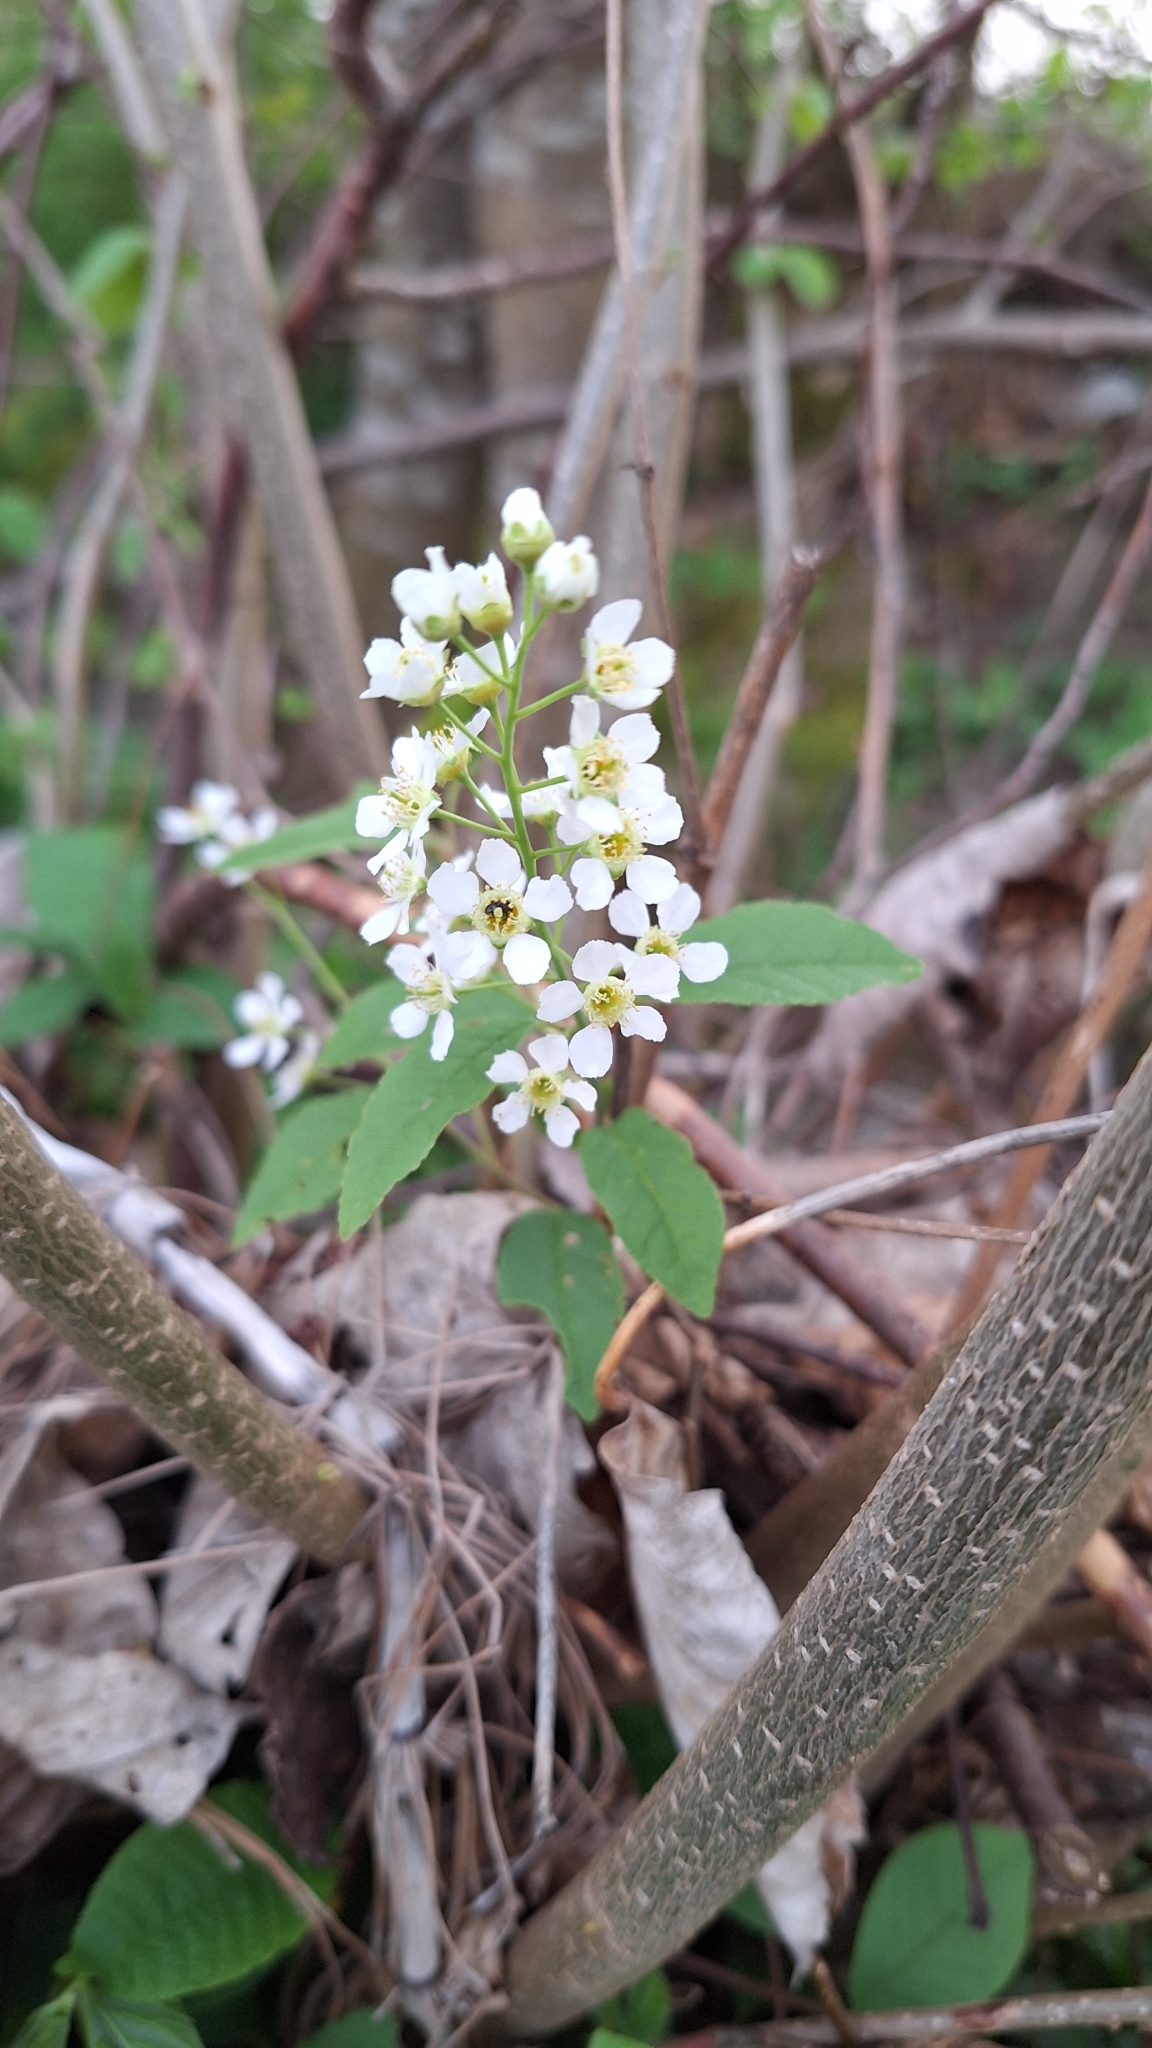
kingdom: Plantae
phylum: Tracheophyta
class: Magnoliopsida
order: Rosales
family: Rosaceae
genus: Prunus
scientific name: Prunus padus
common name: Bird cherry
